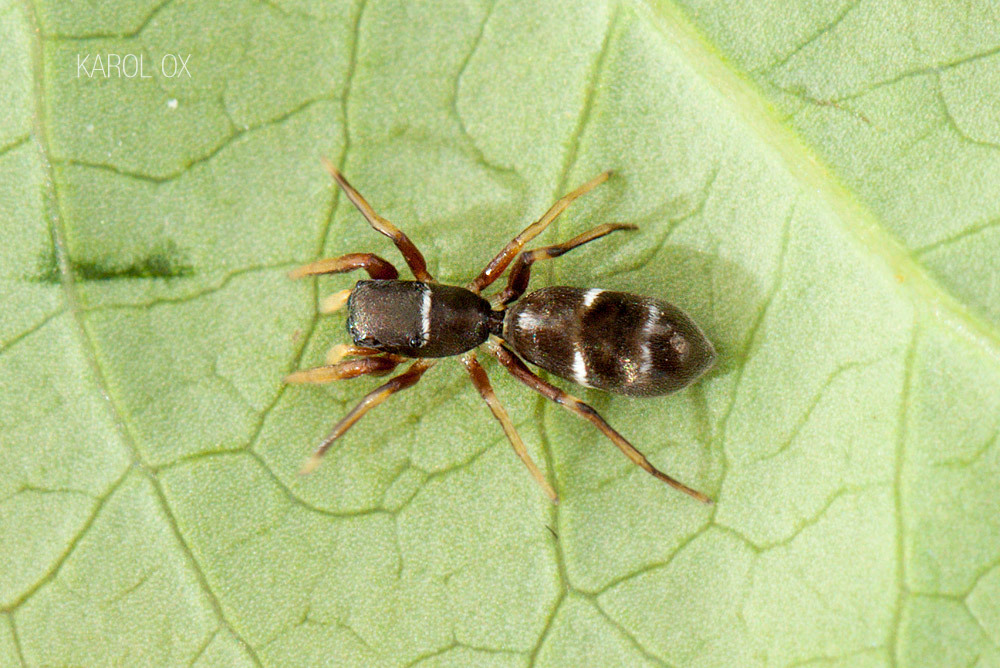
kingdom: Animalia
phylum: Arthropoda
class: Arachnida
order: Araneae
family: Salticidae
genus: Synageles
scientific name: Synageles venator
